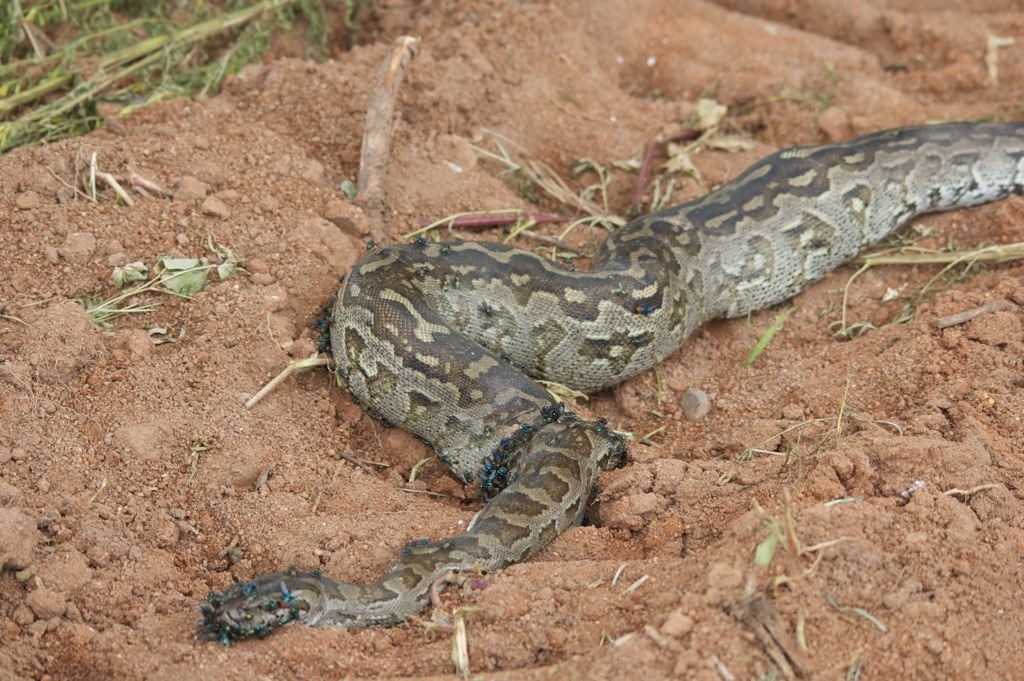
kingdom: Animalia
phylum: Chordata
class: Squamata
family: Pythonidae
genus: Python
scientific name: Python natalensis
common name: Southern african rock python
